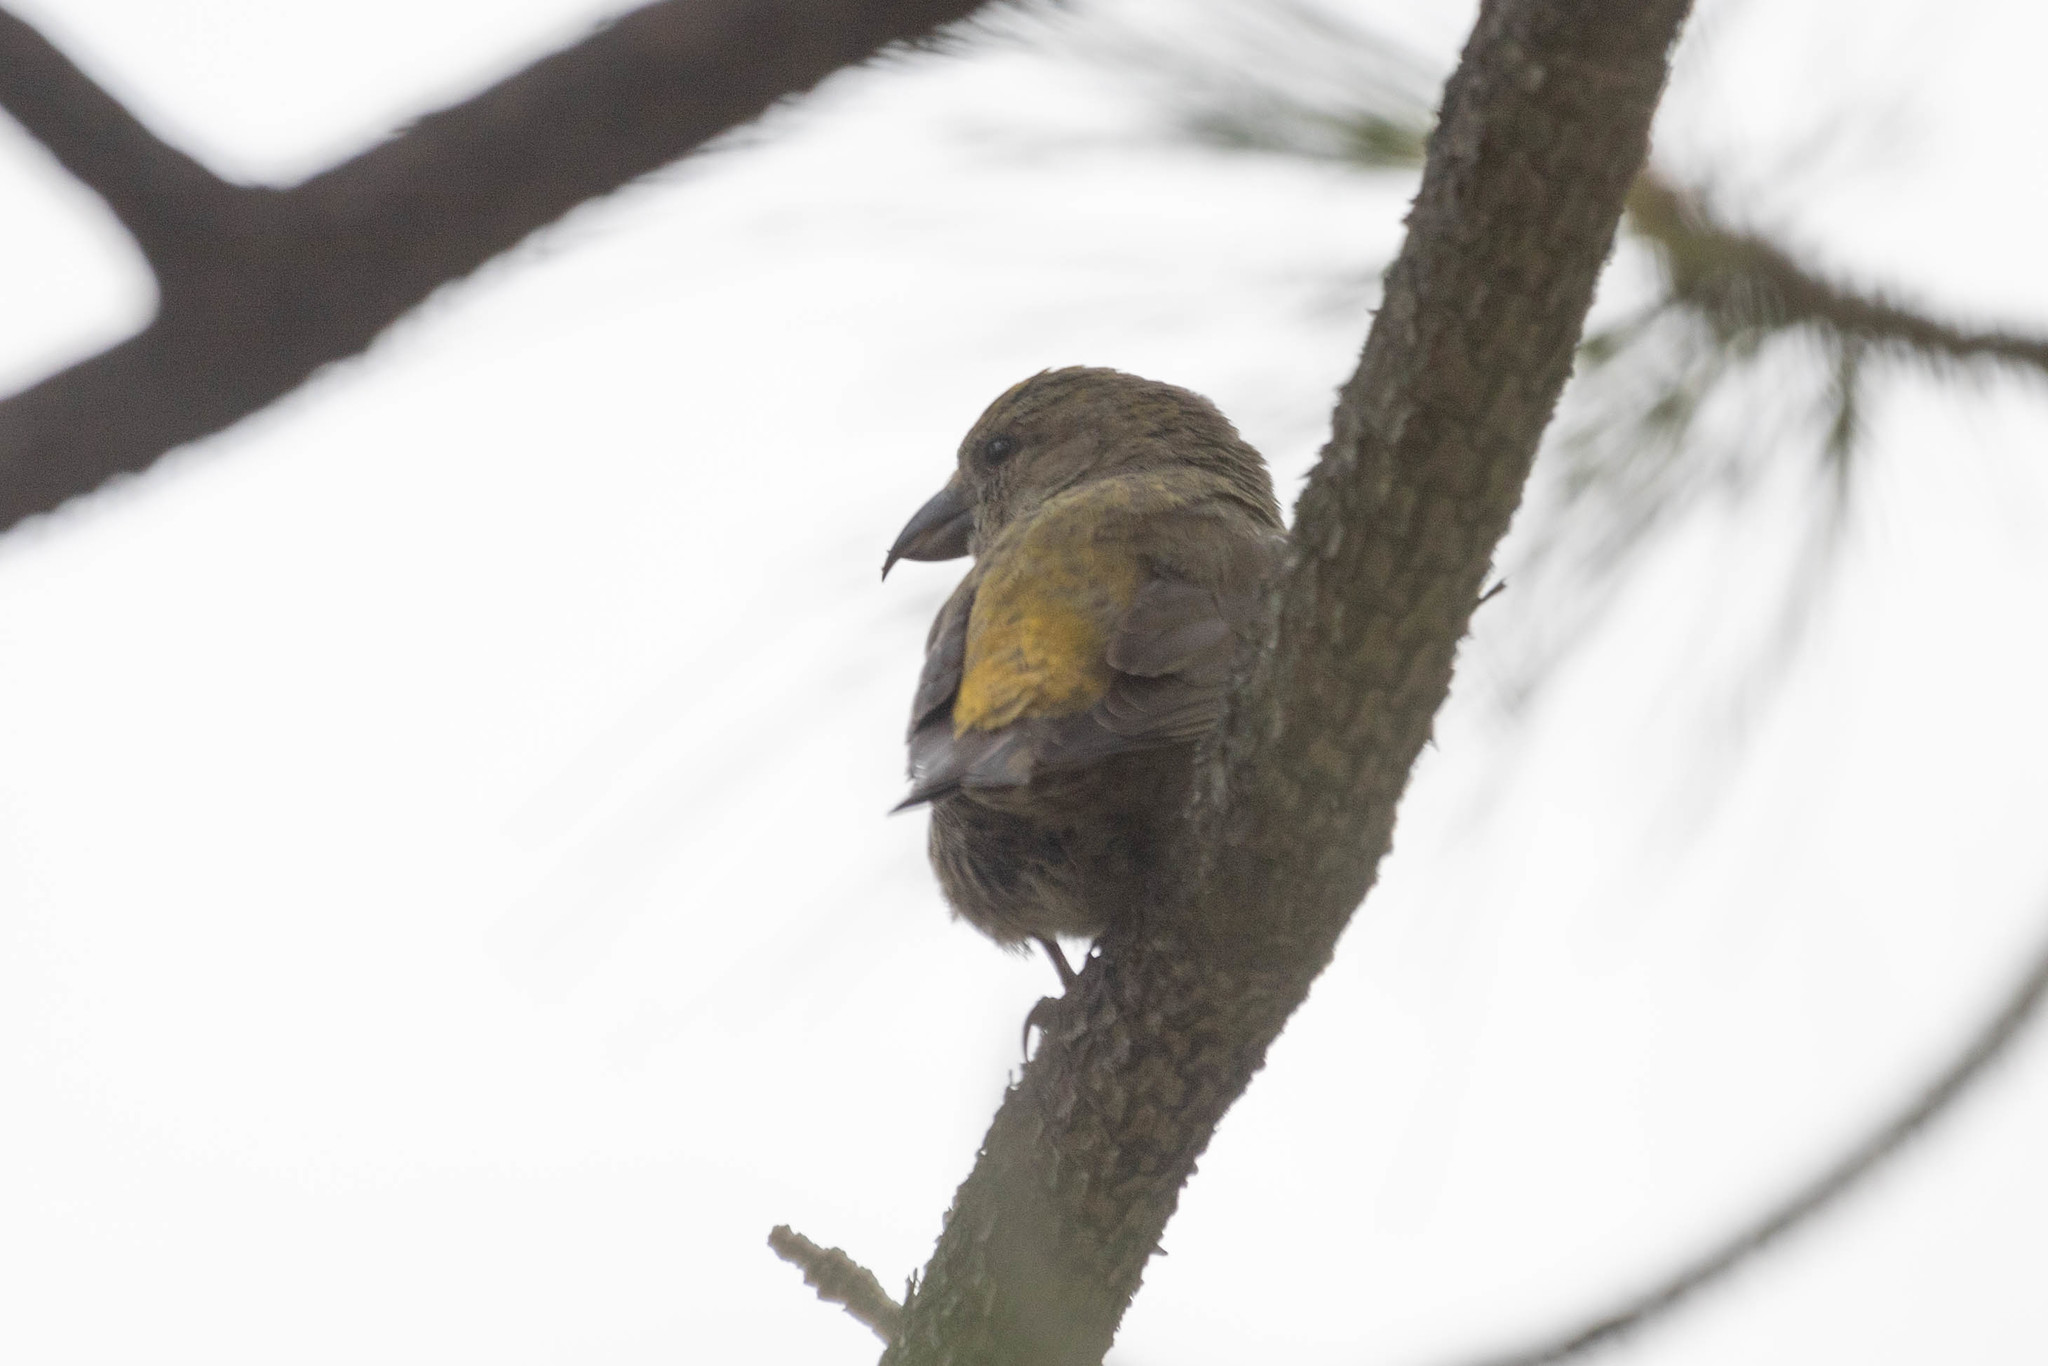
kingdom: Animalia
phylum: Chordata
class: Aves
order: Passeriformes
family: Fringillidae
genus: Loxia
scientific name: Loxia curvirostra
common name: Red crossbill
